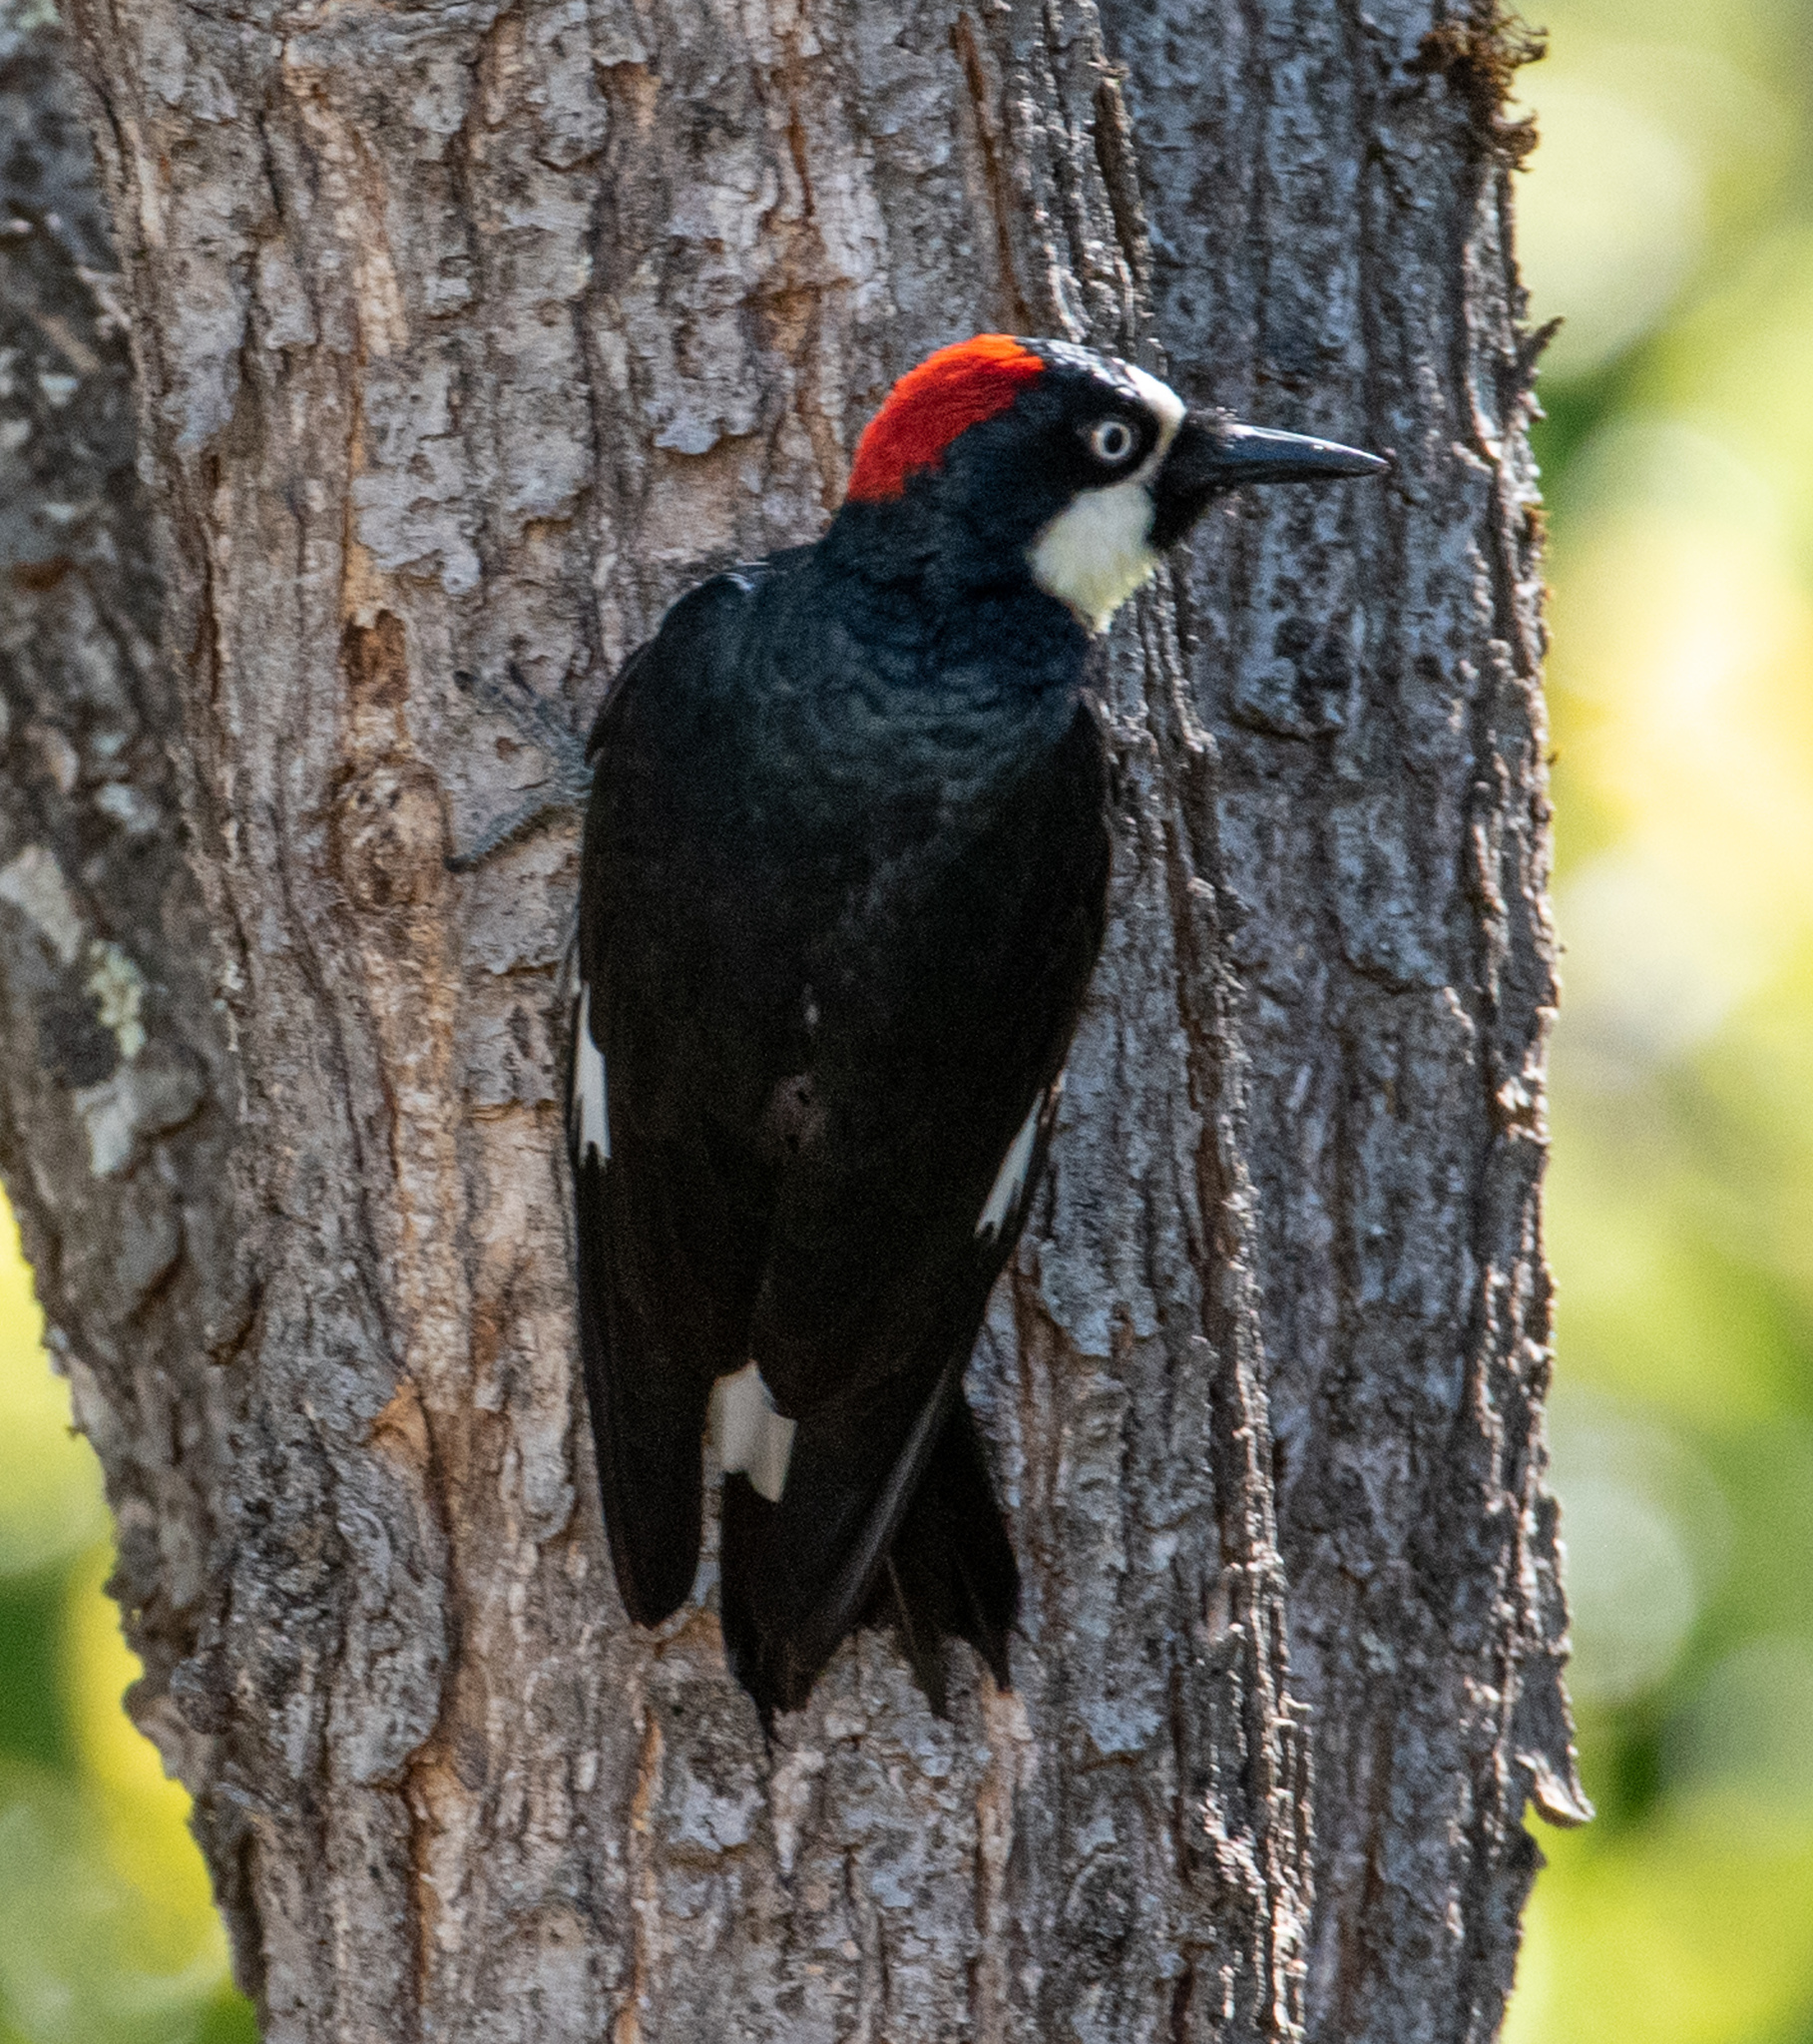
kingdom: Animalia
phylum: Chordata
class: Aves
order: Piciformes
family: Picidae
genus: Melanerpes
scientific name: Melanerpes formicivorus
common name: Acorn woodpecker
